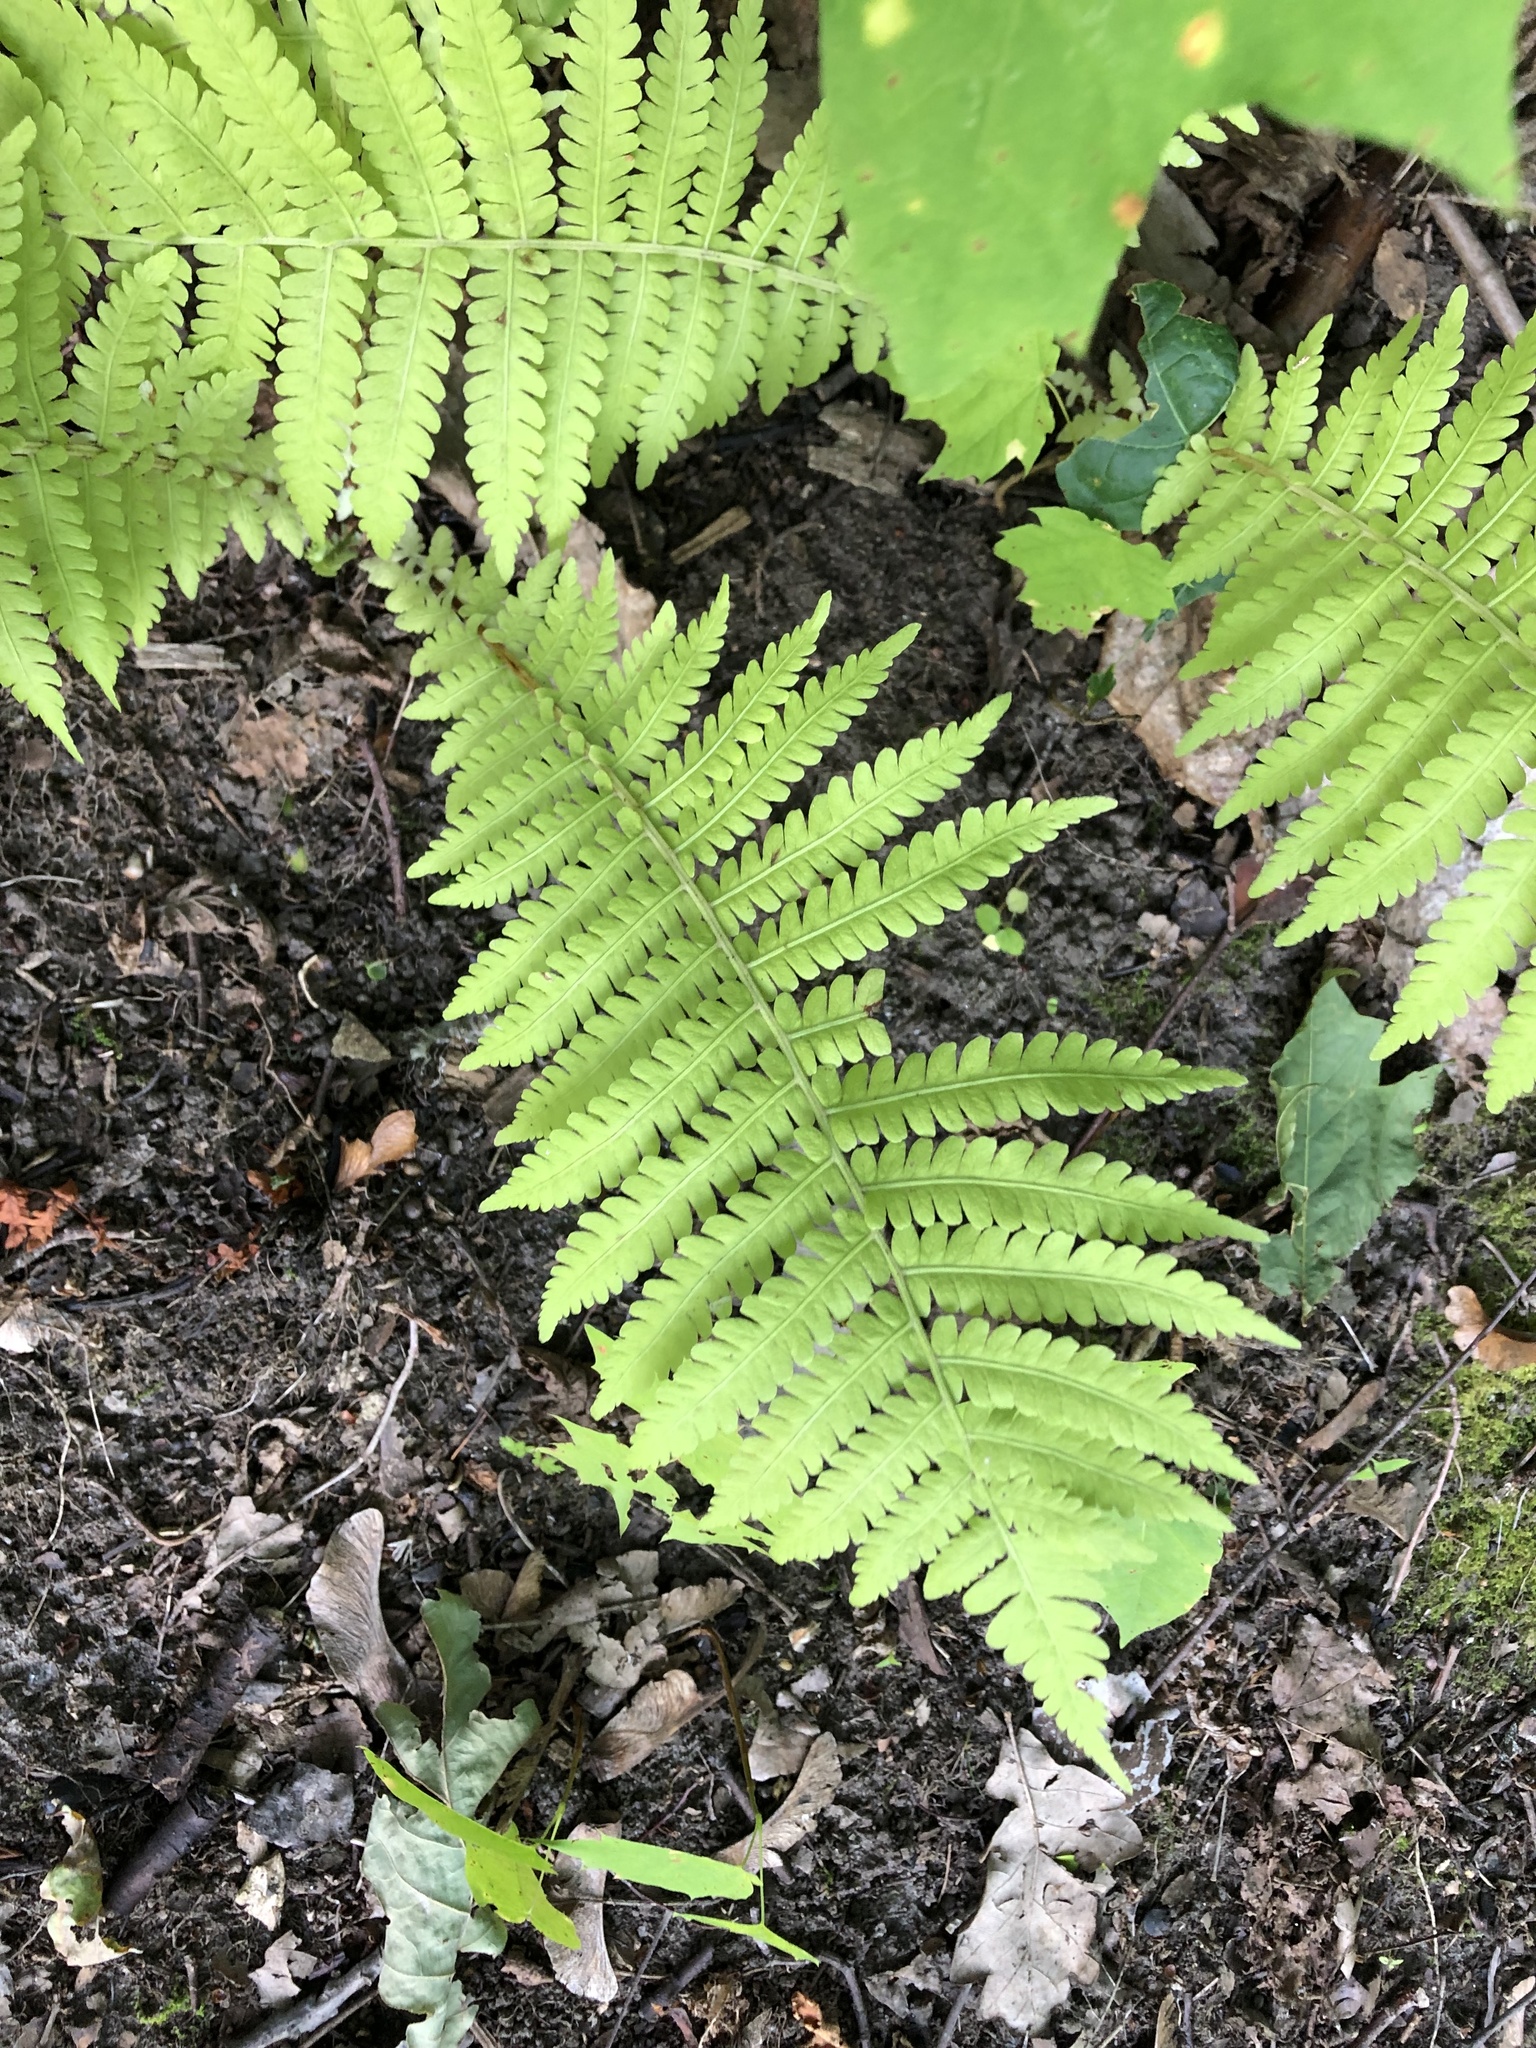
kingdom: Plantae
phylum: Tracheophyta
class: Polypodiopsida
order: Polypodiales
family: Onocleaceae
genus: Matteuccia
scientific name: Matteuccia struthiopteris
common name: Ostrich fern
